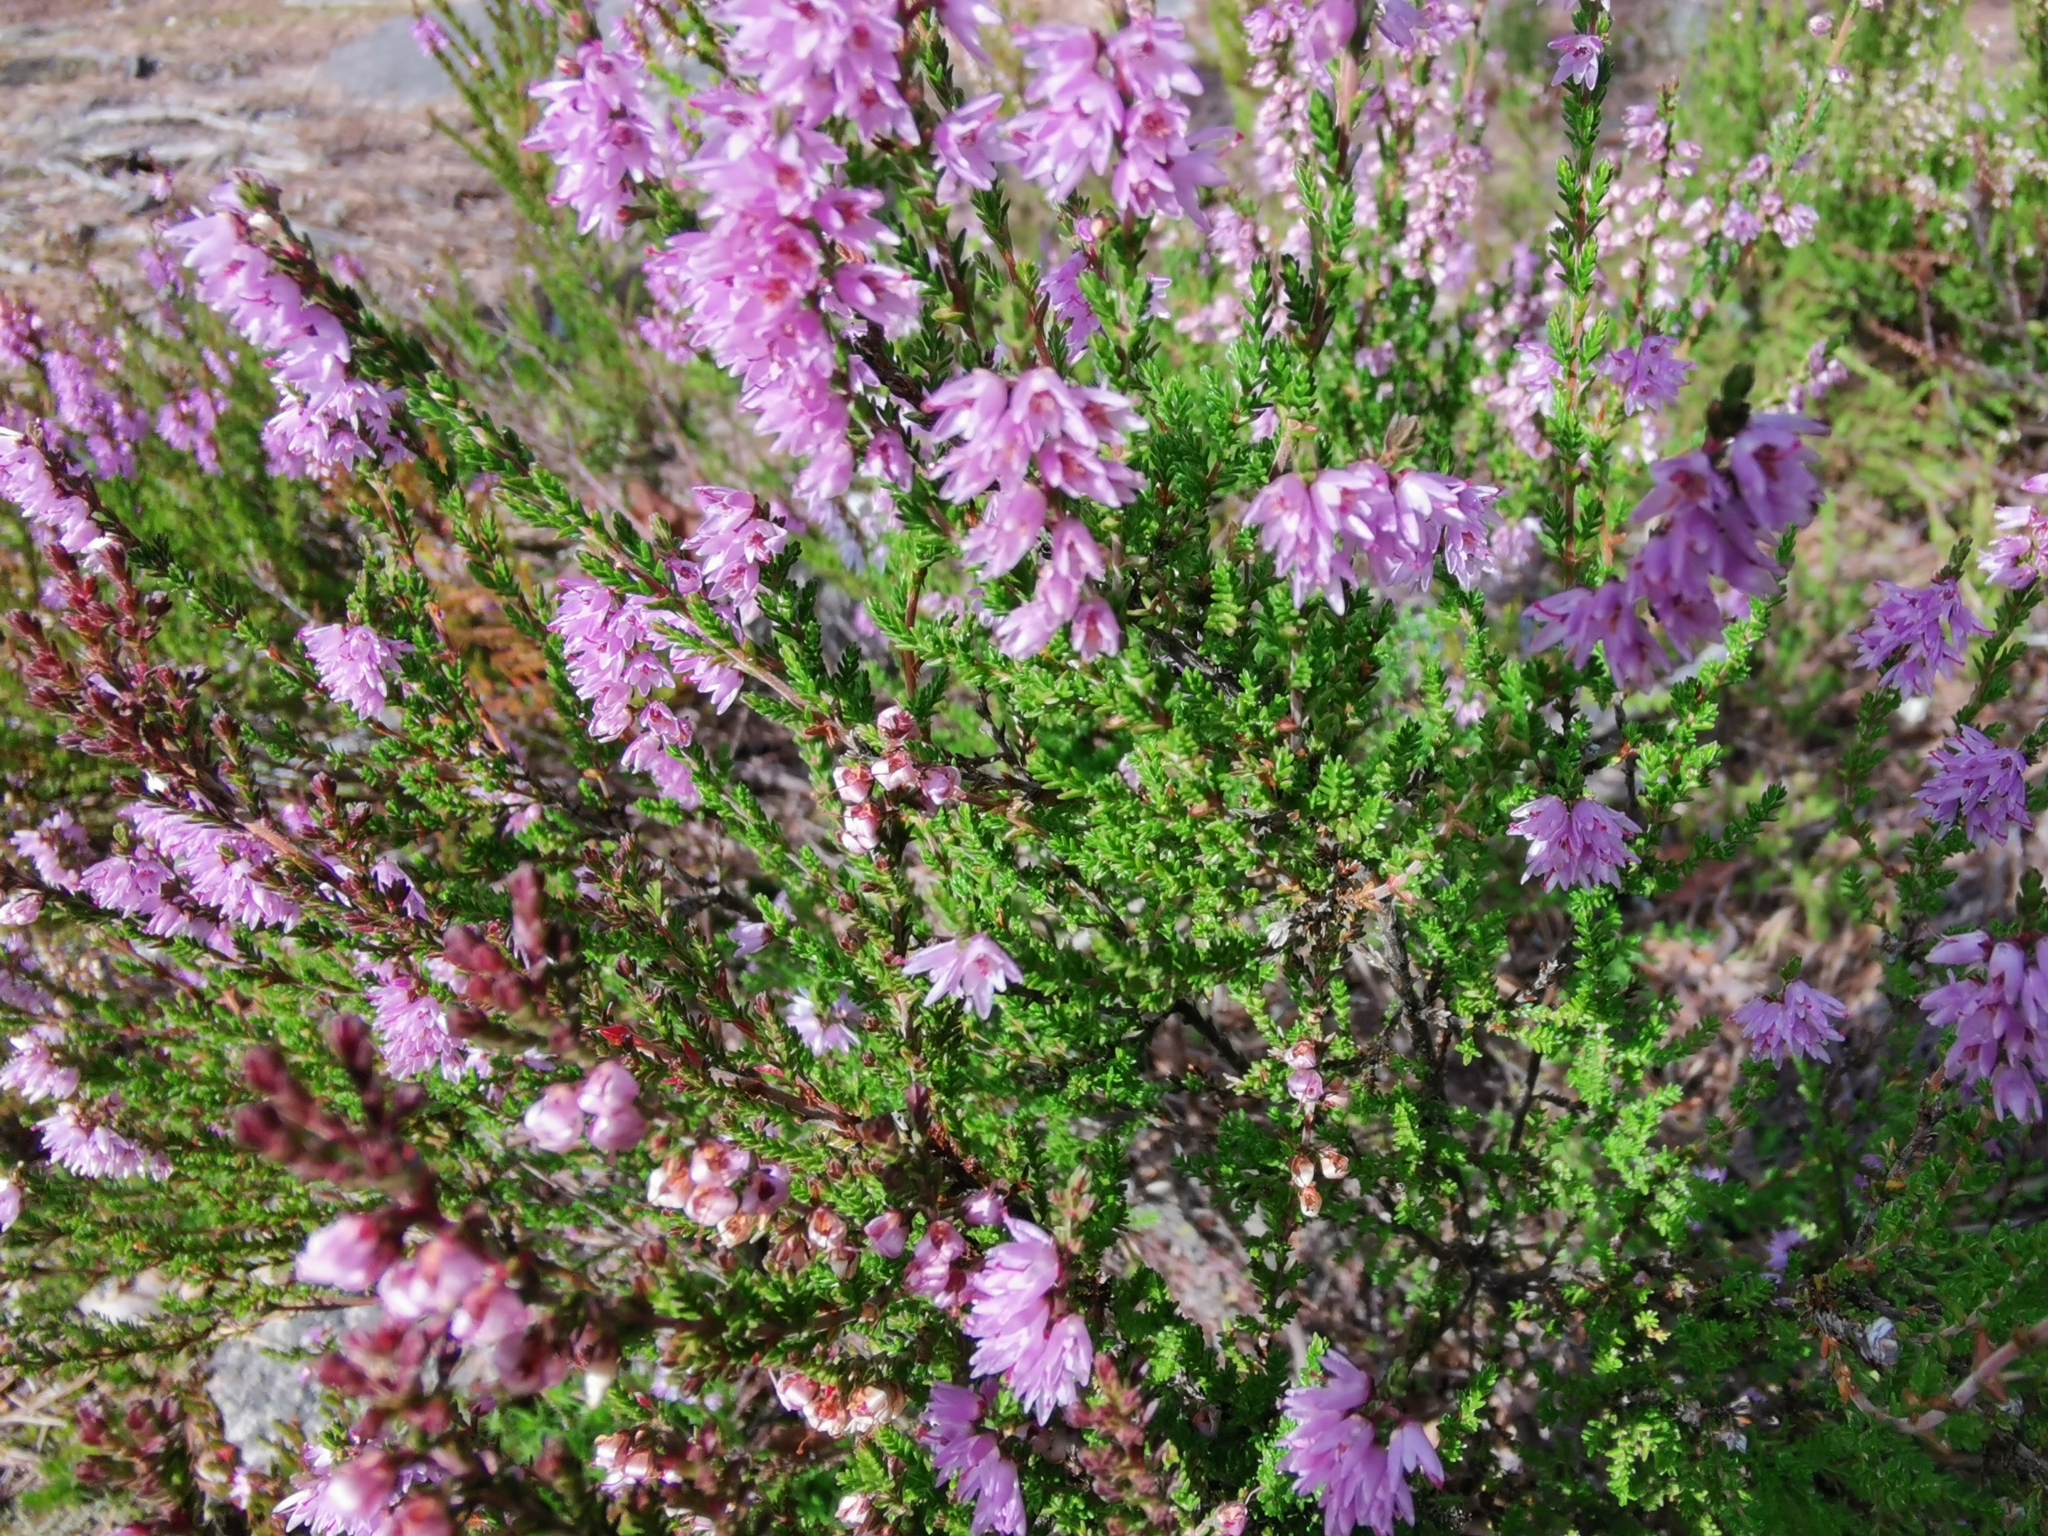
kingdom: Plantae
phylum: Tracheophyta
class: Magnoliopsida
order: Ericales
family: Ericaceae
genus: Calluna
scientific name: Calluna vulgaris
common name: Heather
